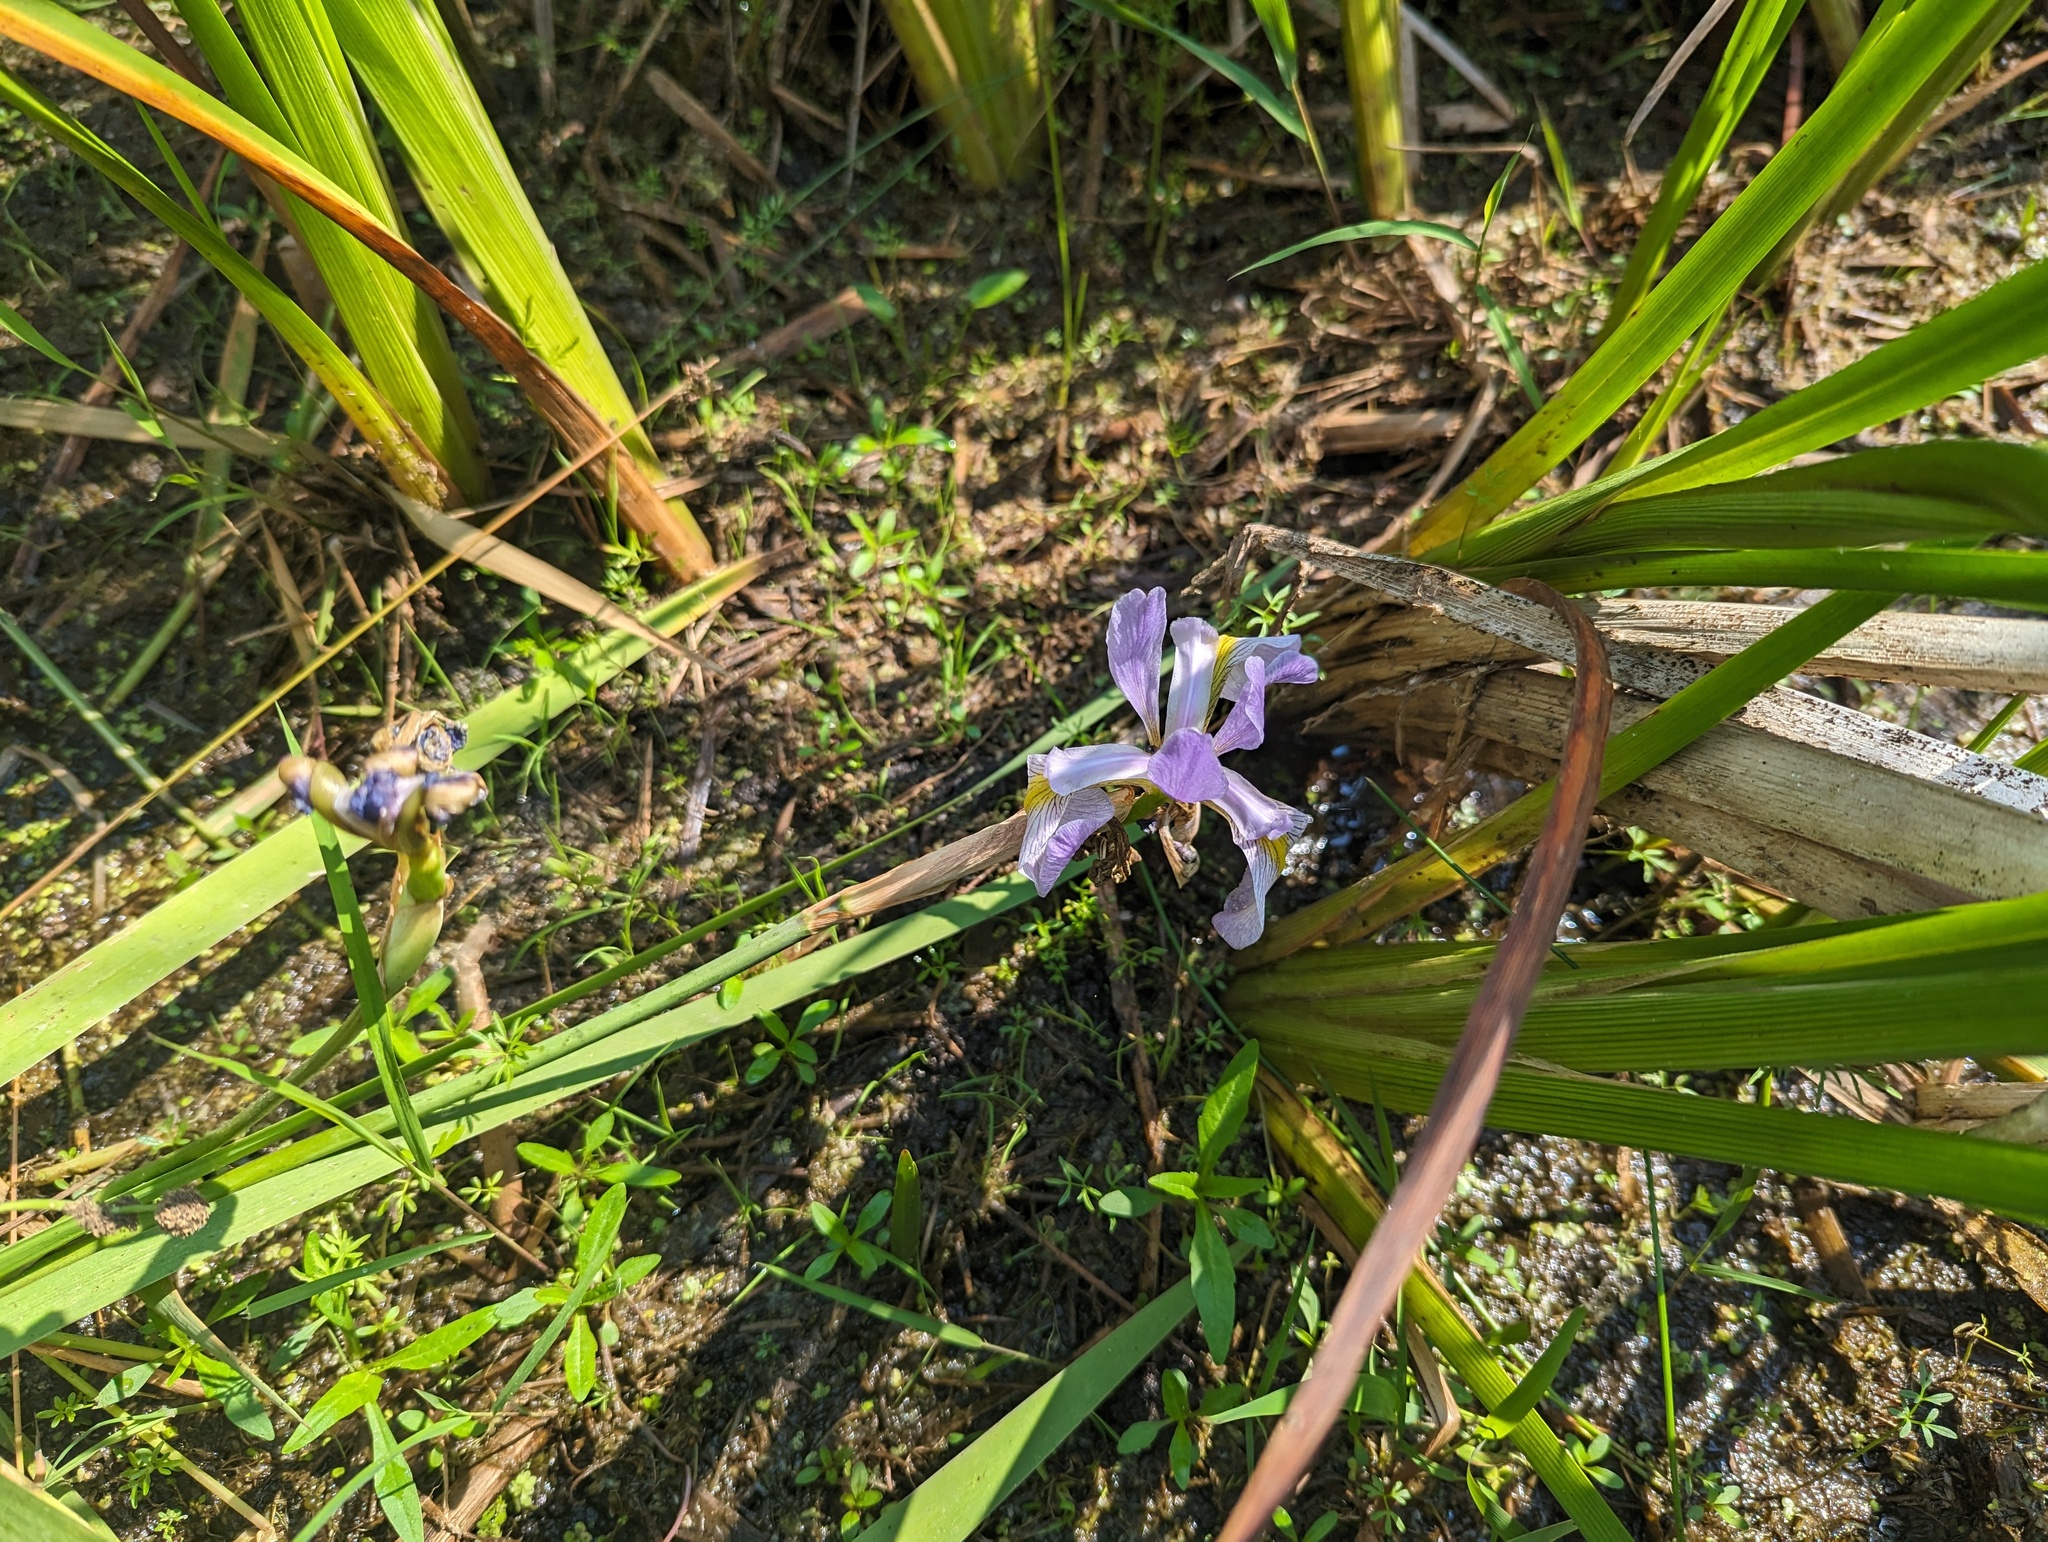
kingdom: Plantae
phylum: Tracheophyta
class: Liliopsida
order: Asparagales
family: Iridaceae
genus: Iris
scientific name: Iris virginica
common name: Southern blue flag
